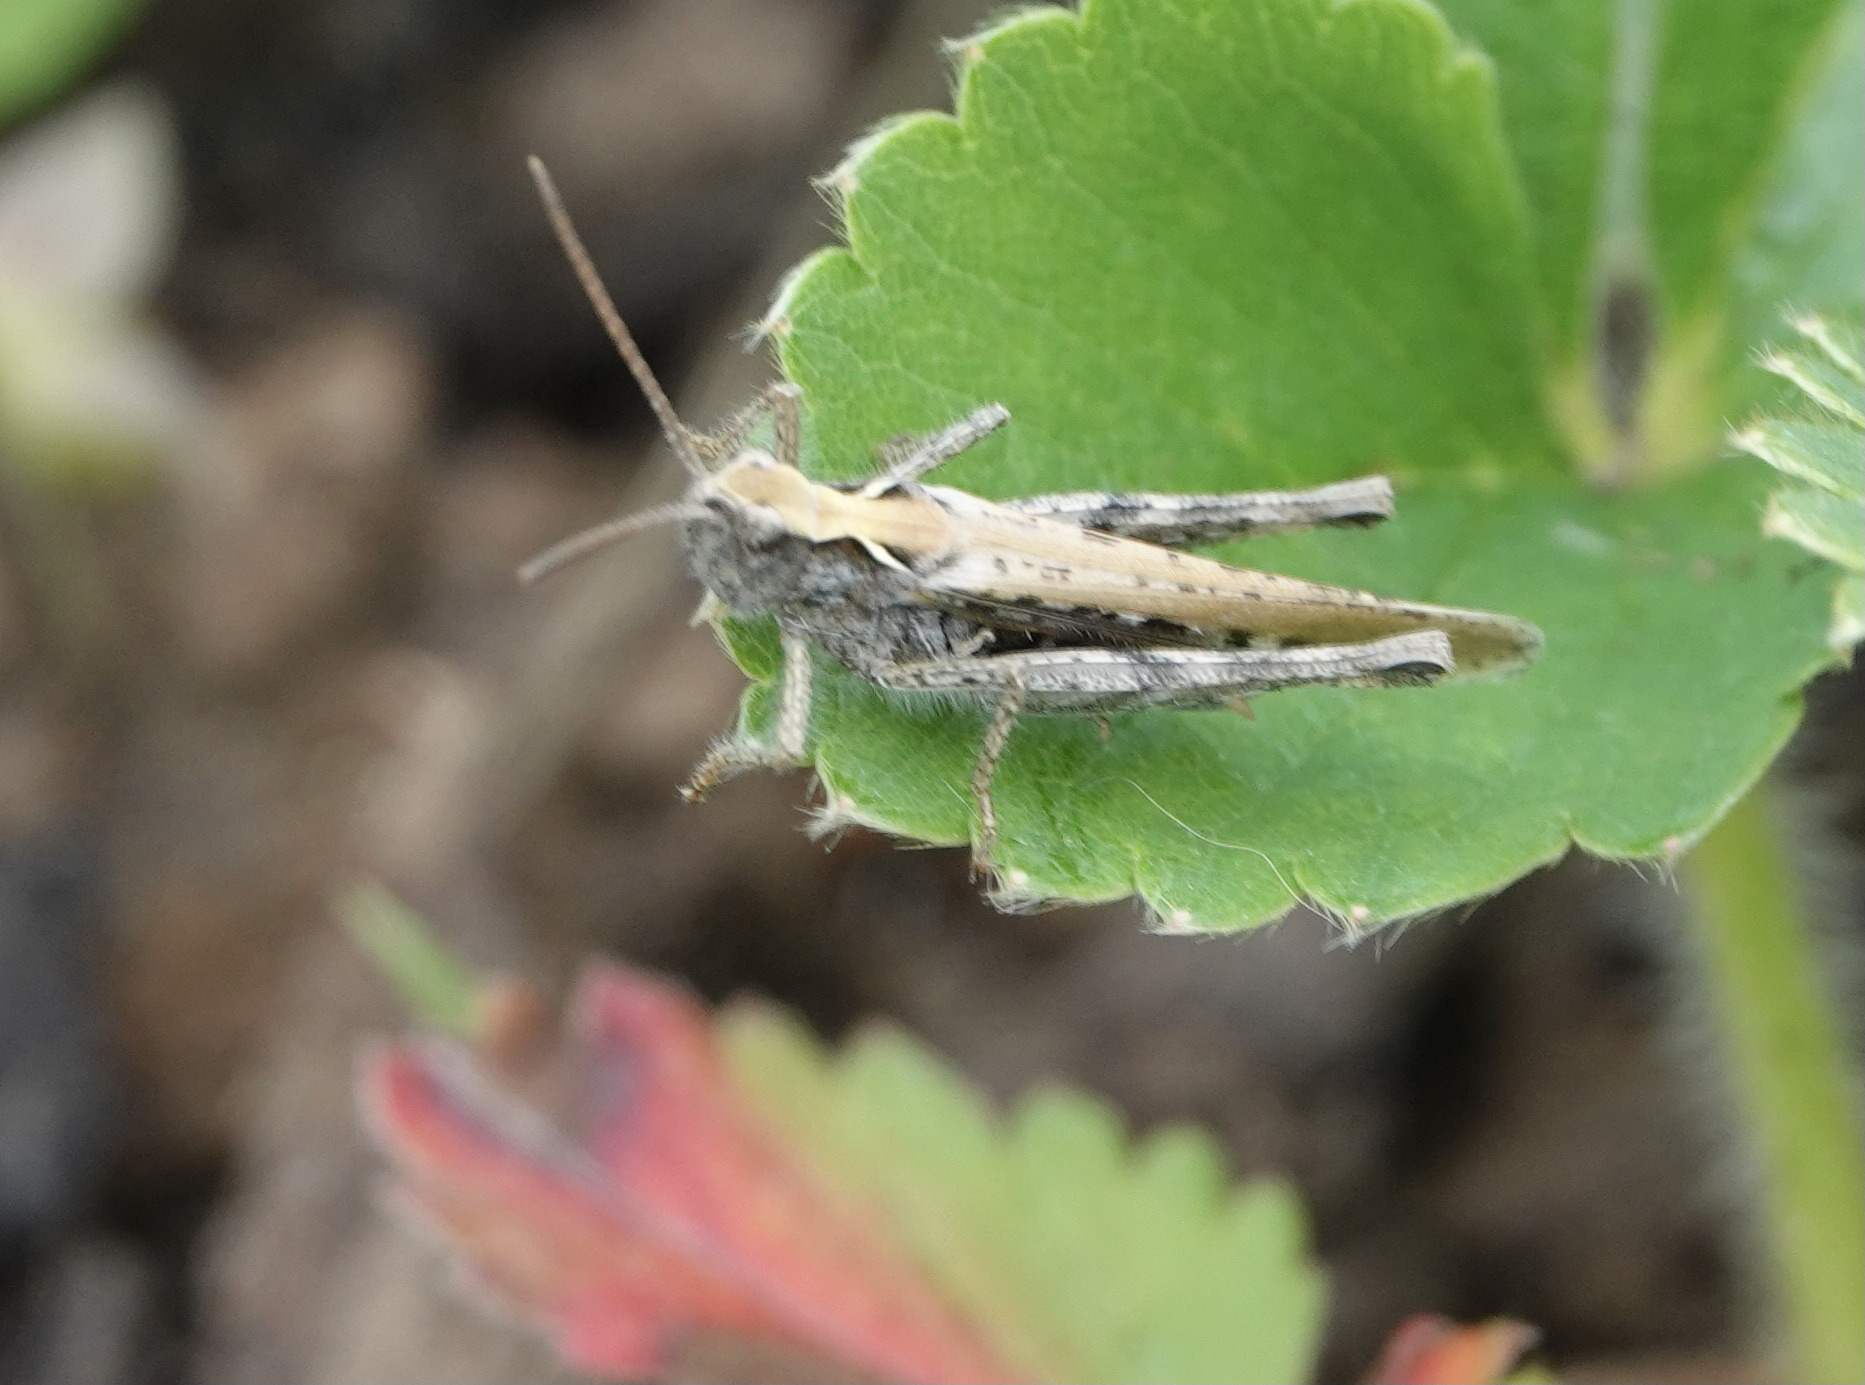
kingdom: Animalia
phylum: Arthropoda
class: Insecta
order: Orthoptera
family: Acrididae
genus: Chorthippus
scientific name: Chorthippus brunneus
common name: Field grasshopper
